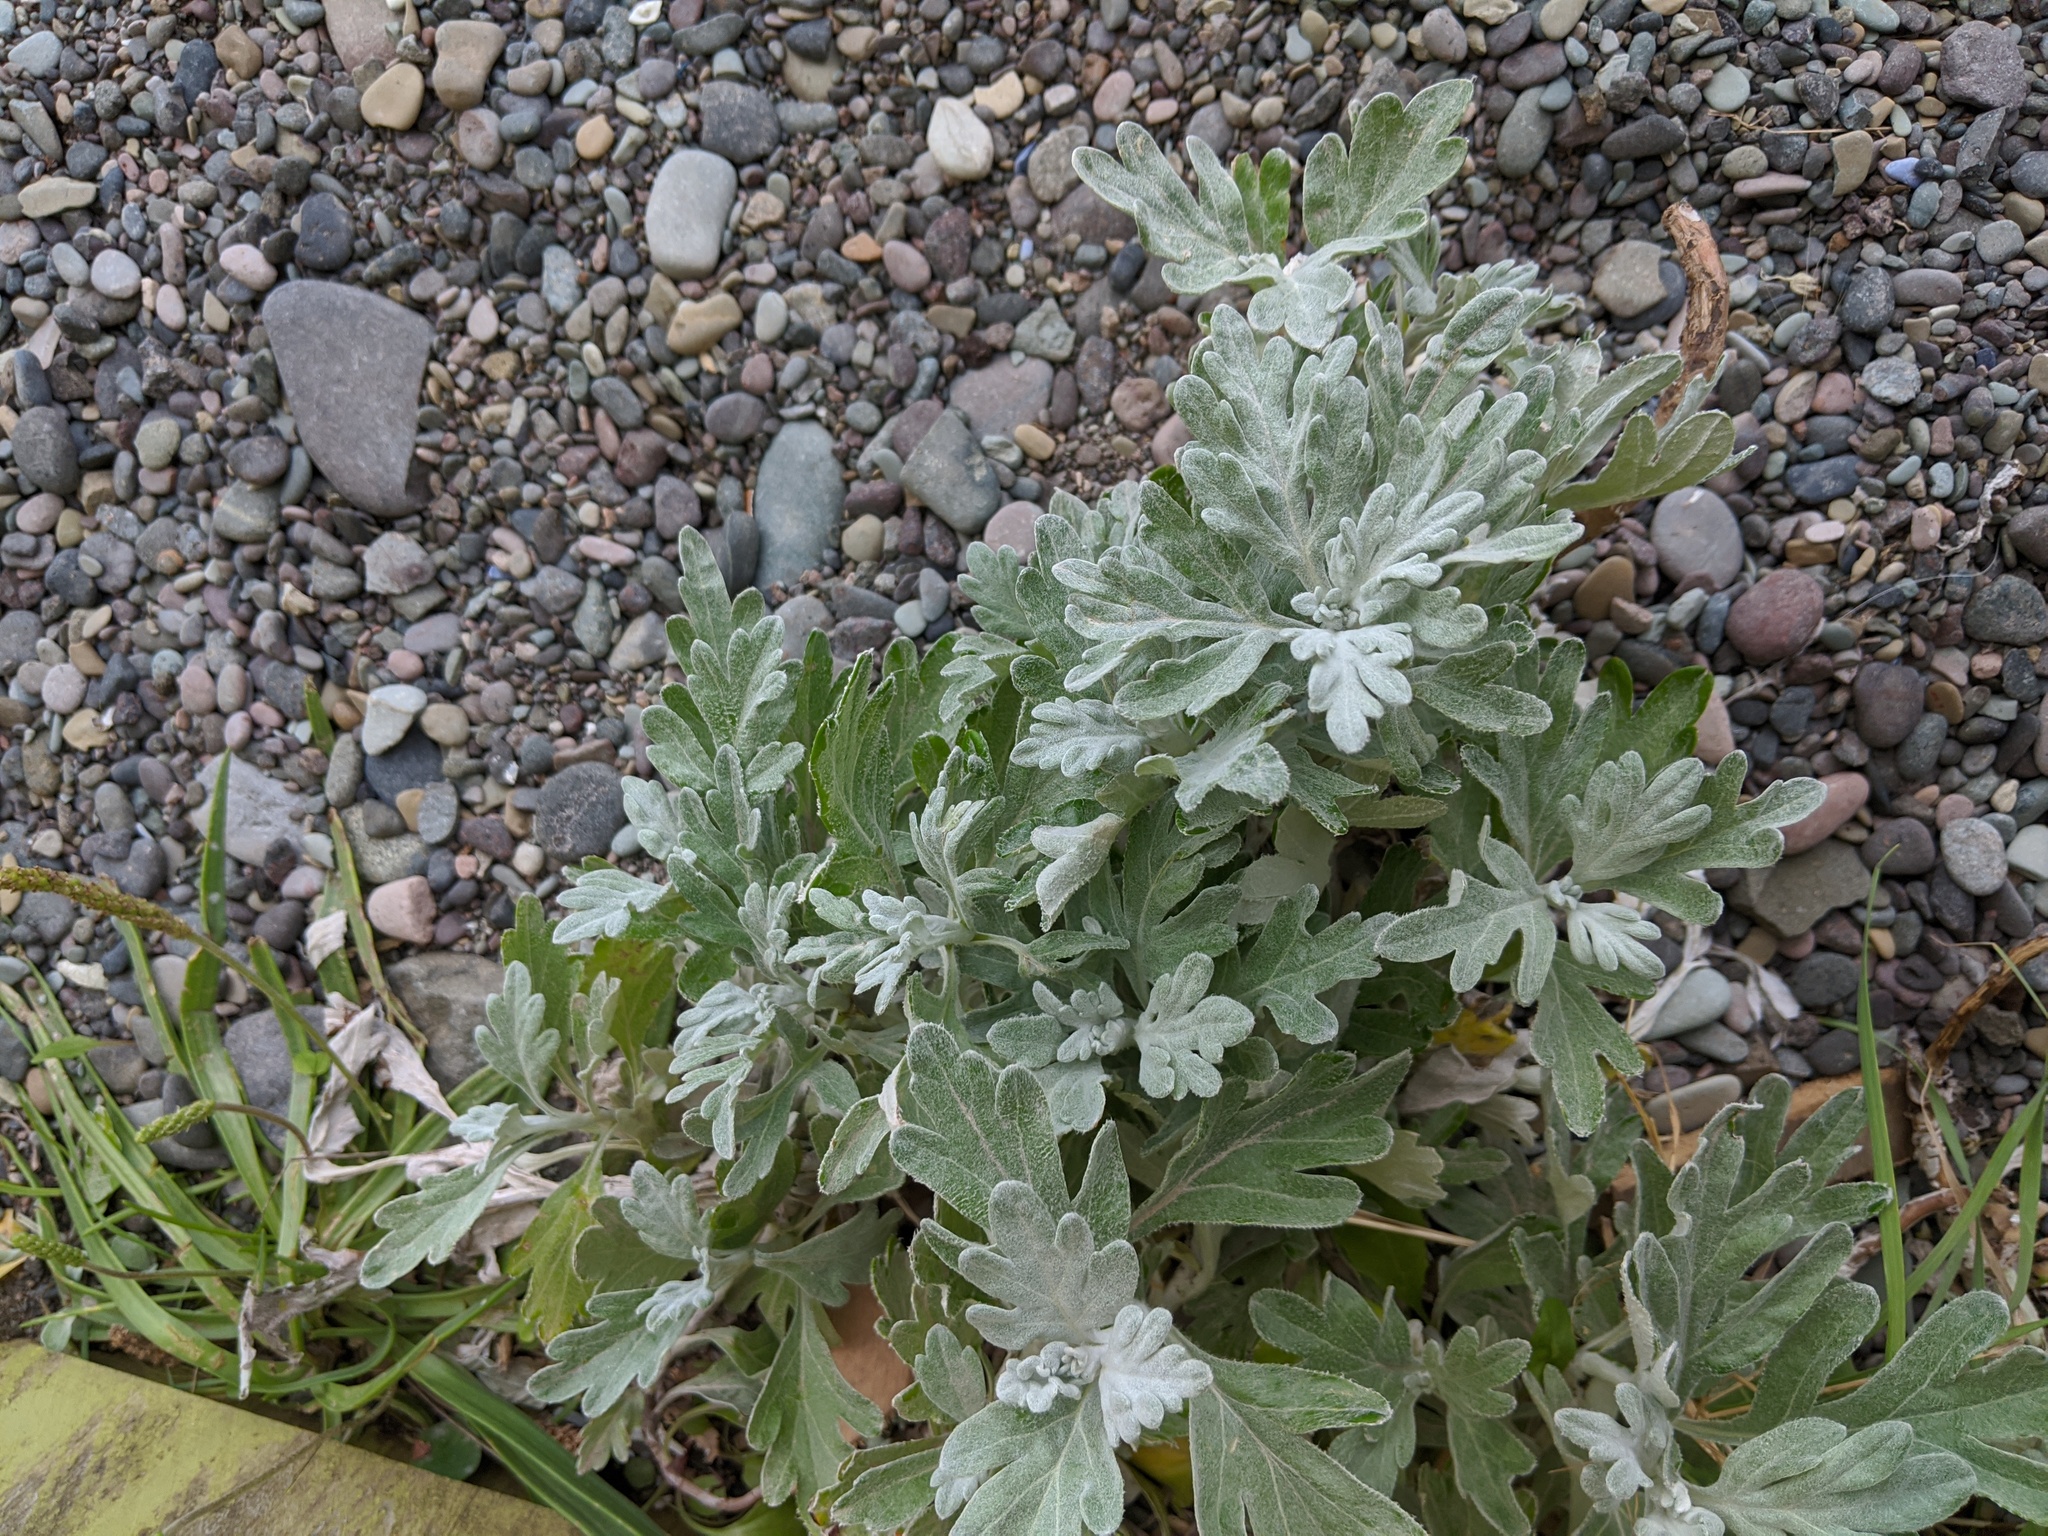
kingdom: Plantae
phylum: Tracheophyta
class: Magnoliopsida
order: Asterales
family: Asteraceae
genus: Artemisia
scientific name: Artemisia stelleriana
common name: Beach wormwood
